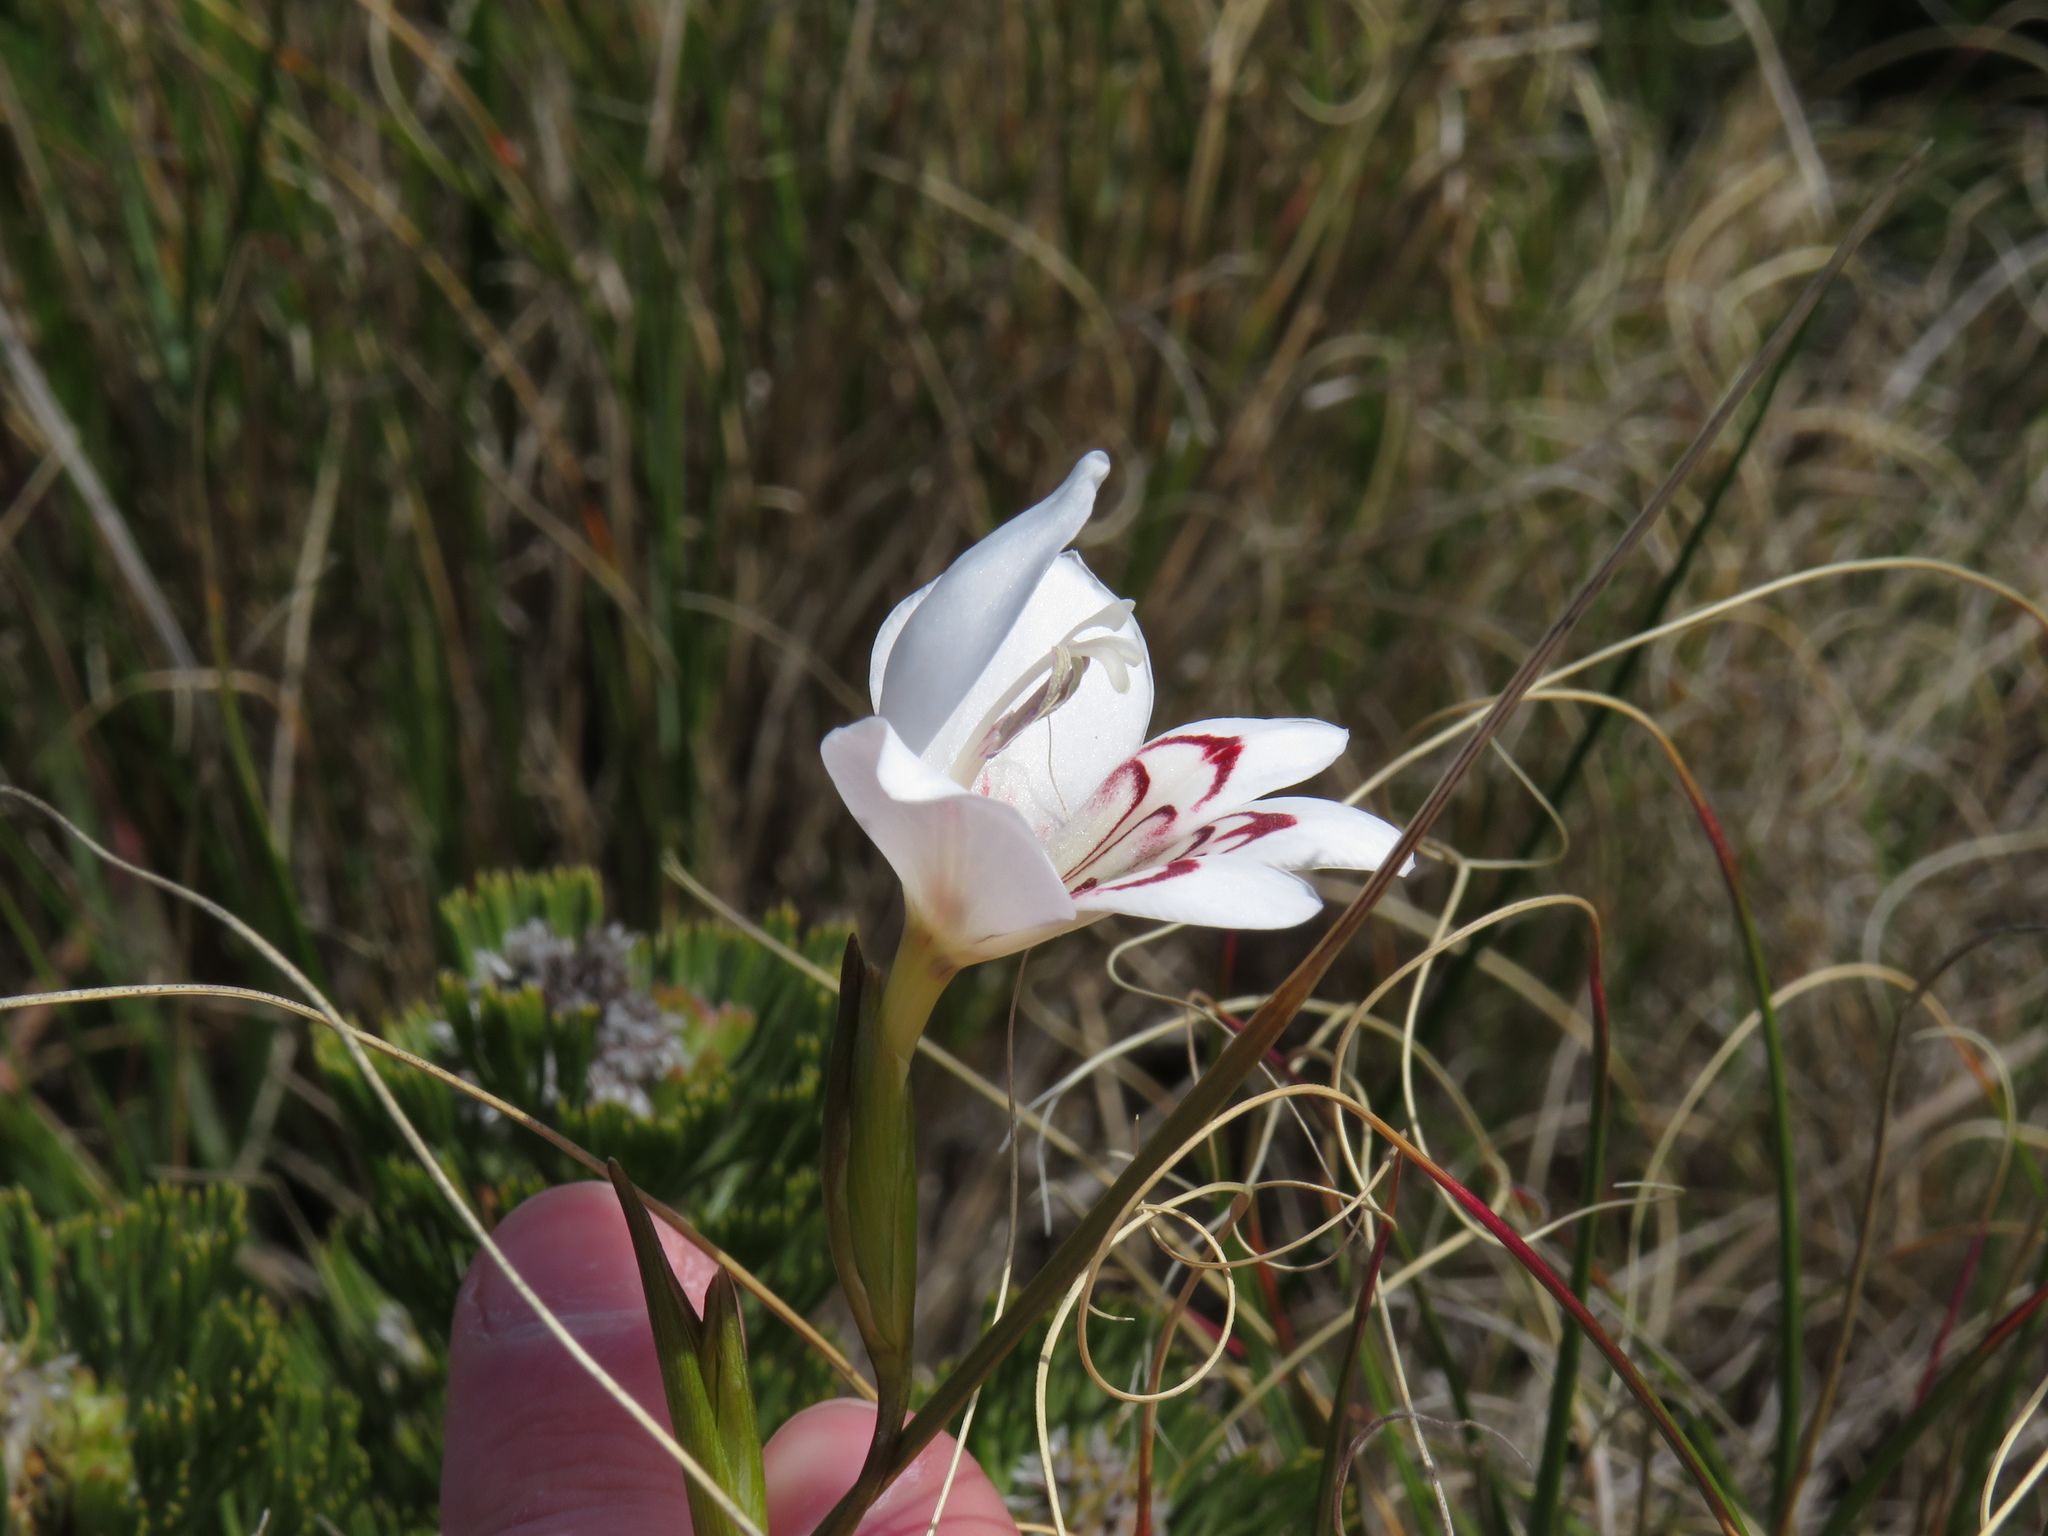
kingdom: Plantae
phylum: Tracheophyta
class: Liliopsida
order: Asparagales
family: Iridaceae
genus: Gladiolus
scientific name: Gladiolus debilis
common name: Painted-lady
